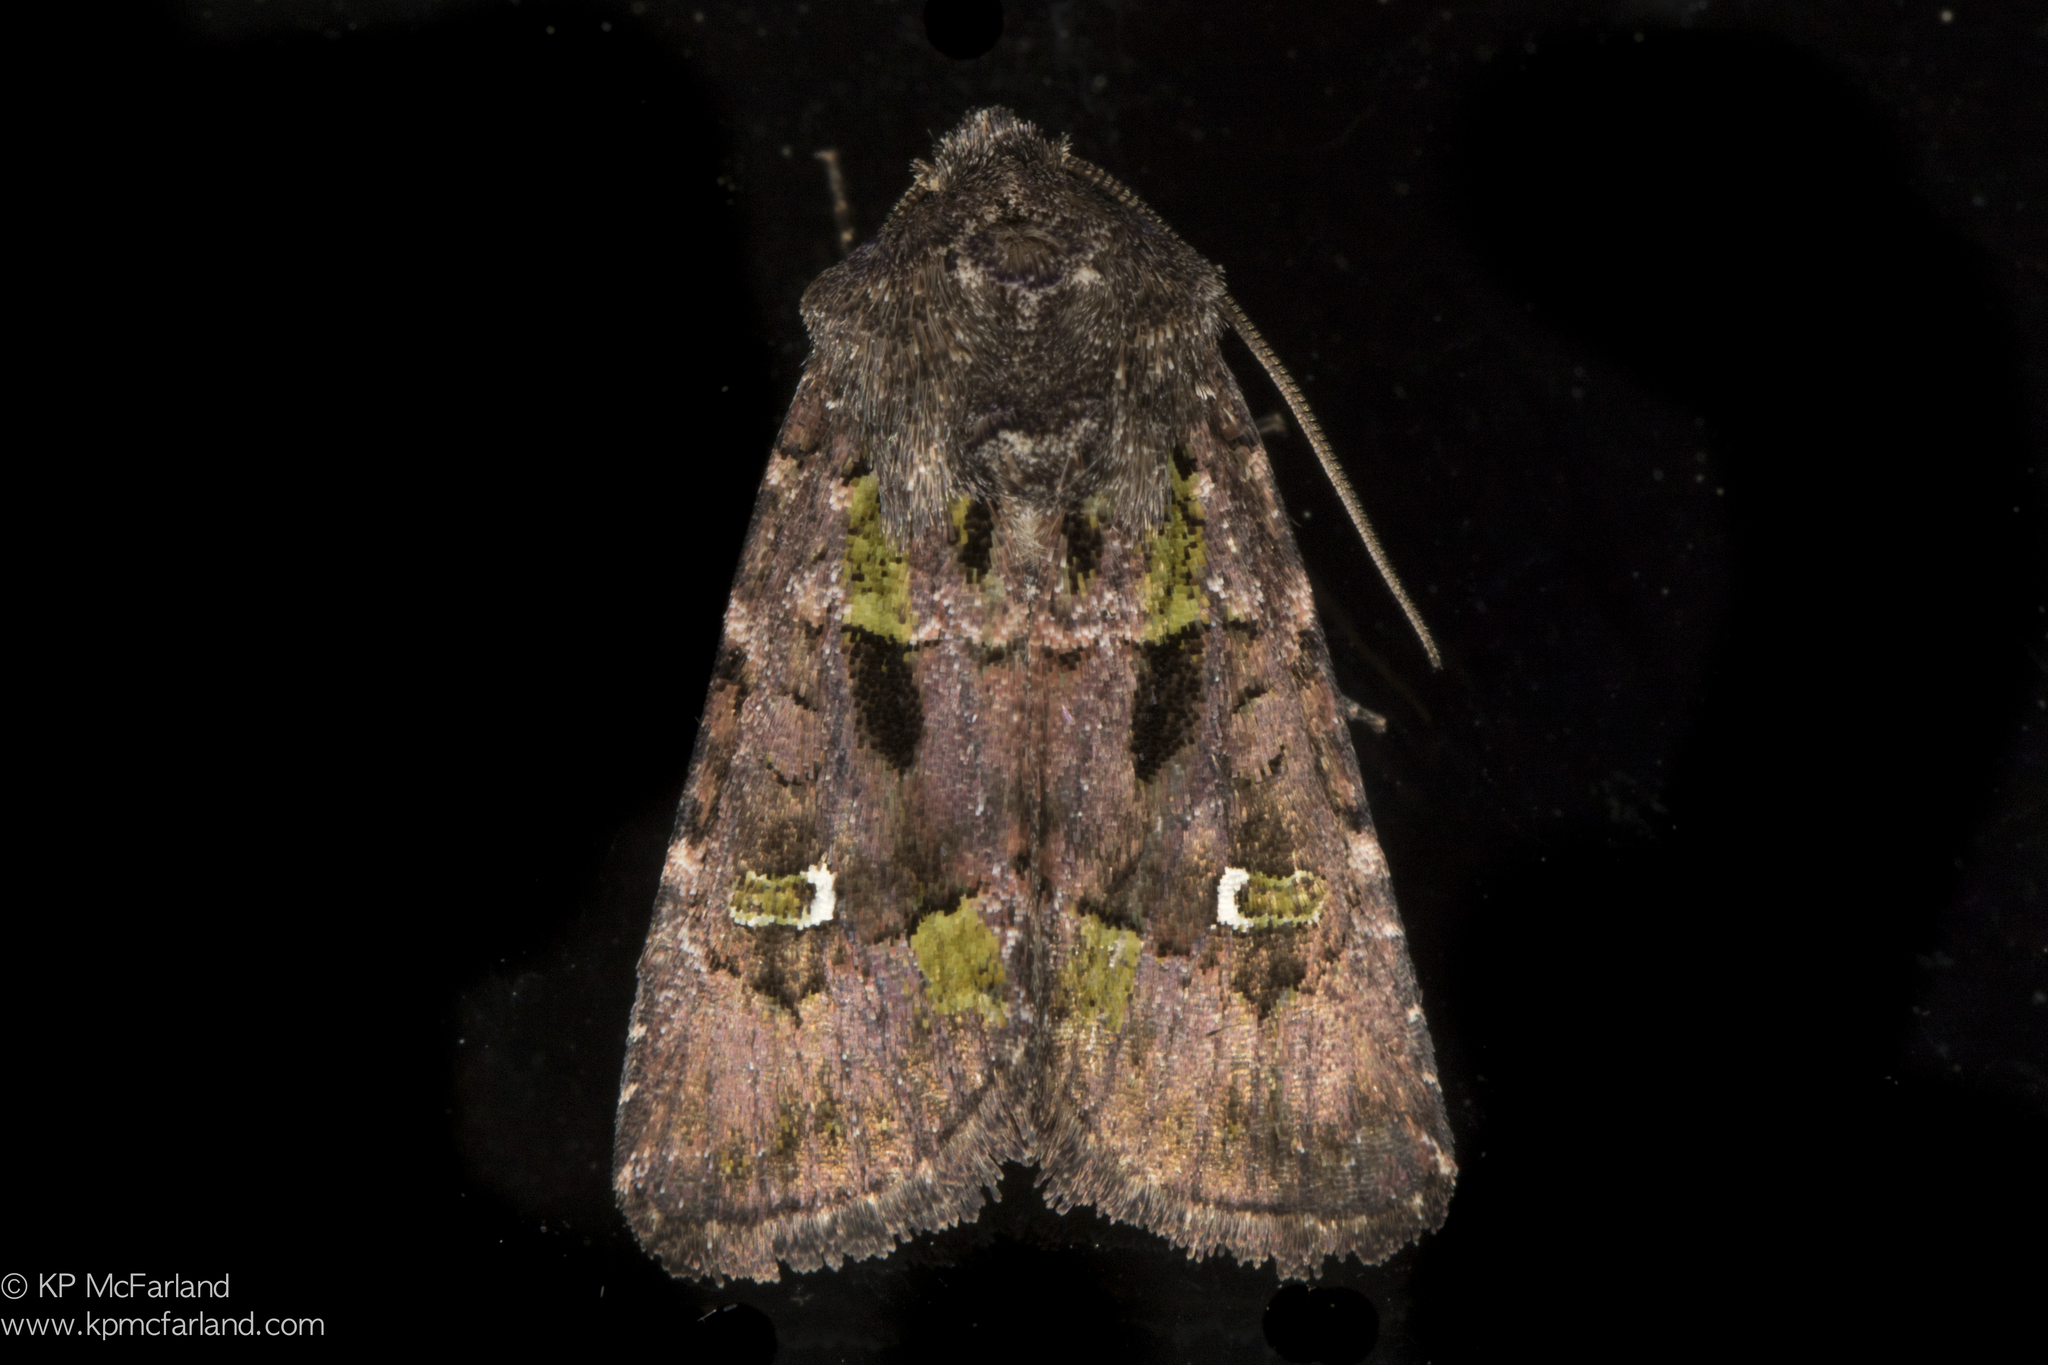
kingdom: Animalia
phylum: Arthropoda
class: Insecta
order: Lepidoptera
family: Noctuidae
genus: Lacinipolia
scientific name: Lacinipolia renigera
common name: Kidney-spotted minor
